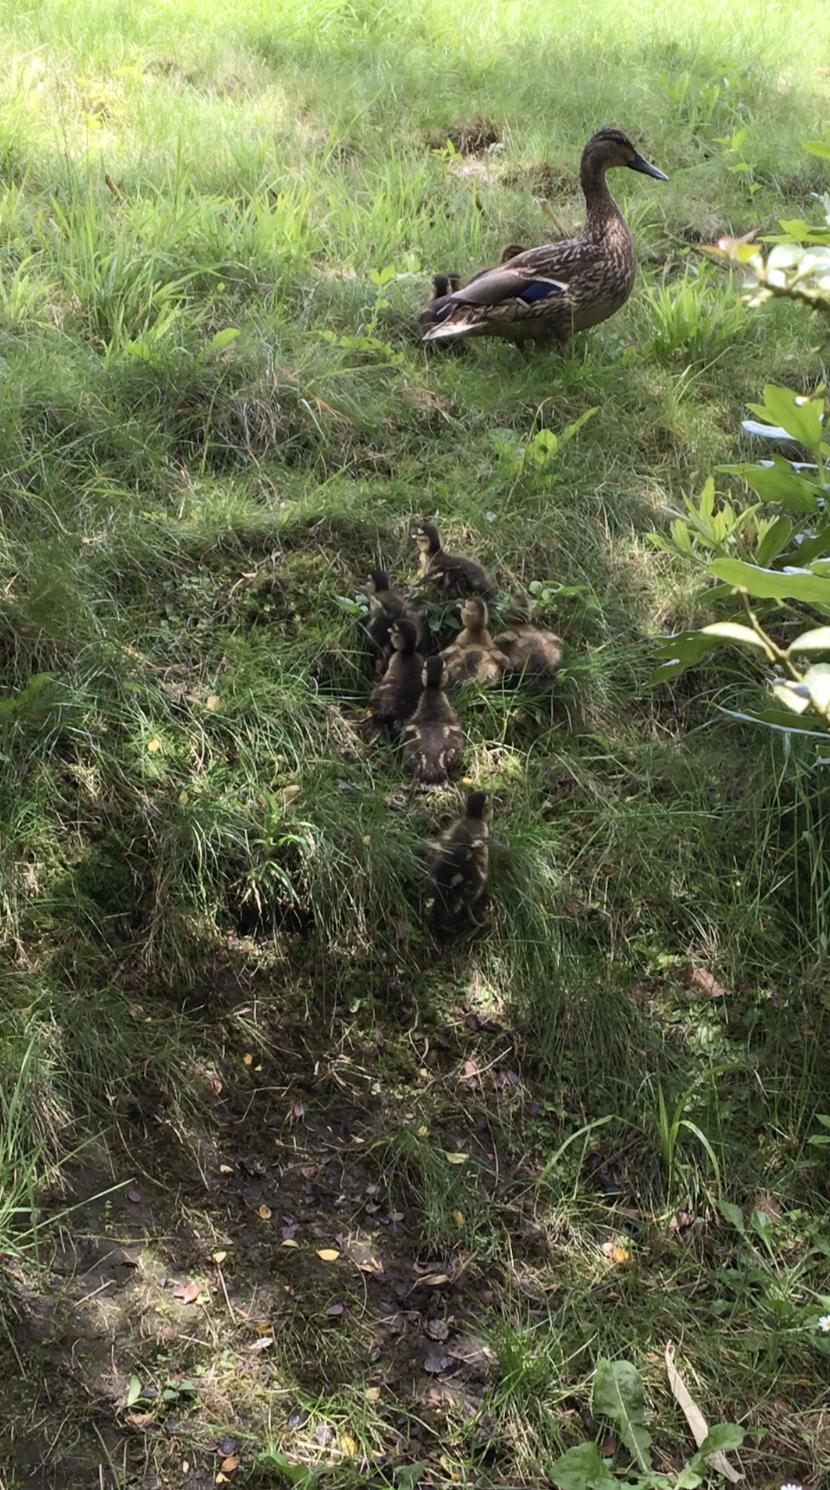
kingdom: Animalia
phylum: Chordata
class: Aves
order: Anseriformes
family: Anatidae
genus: Anas
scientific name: Anas platyrhynchos
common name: Mallard
